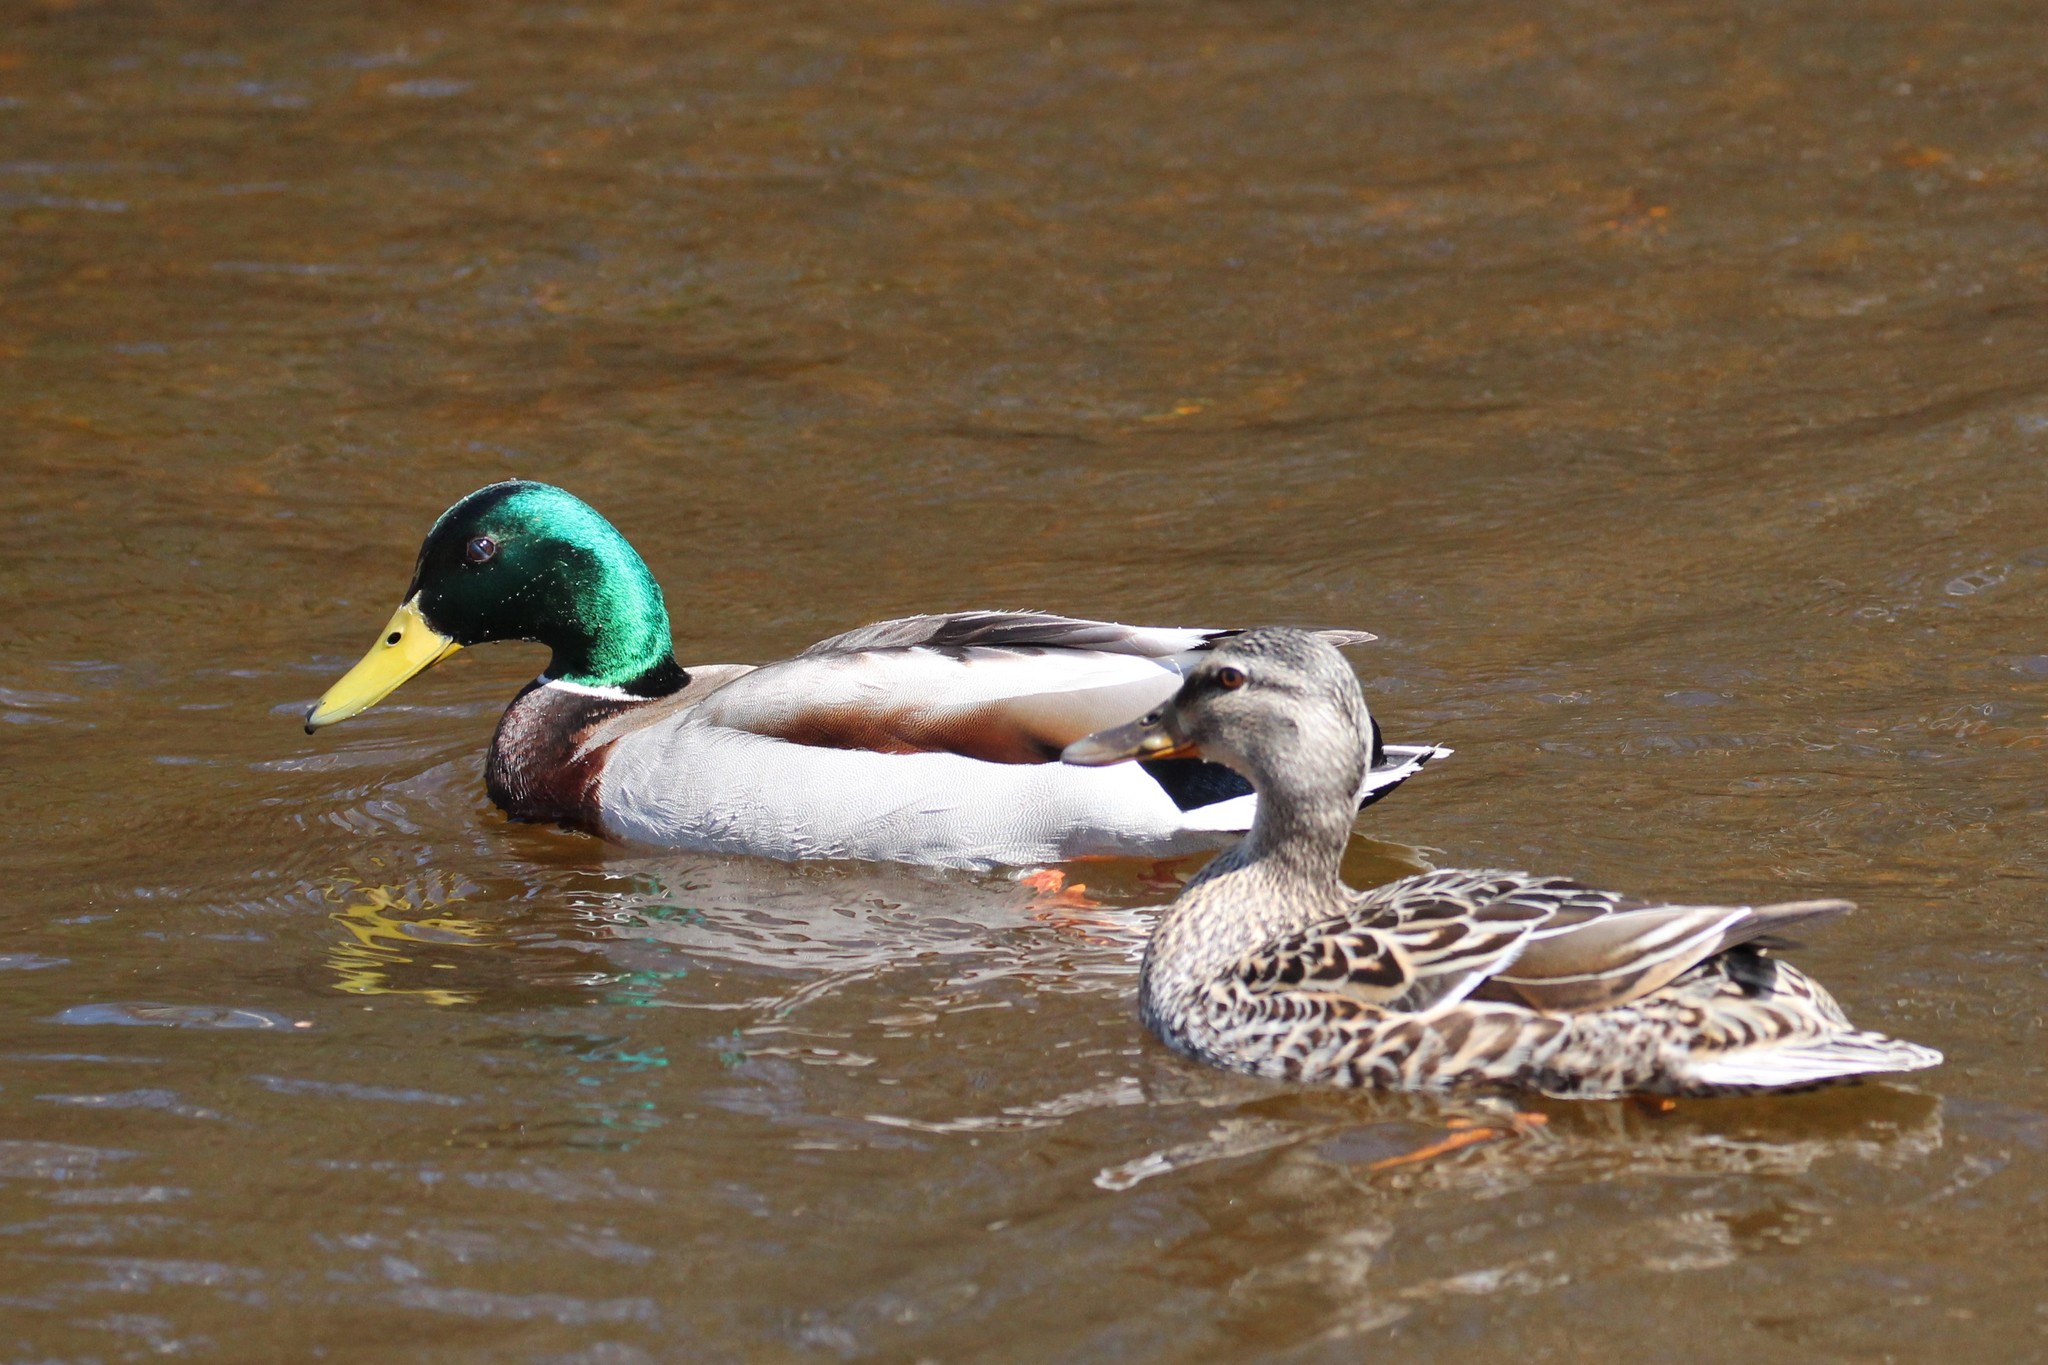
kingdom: Animalia
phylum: Chordata
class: Aves
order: Anseriformes
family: Anatidae
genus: Anas
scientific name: Anas platyrhynchos
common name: Mallard
